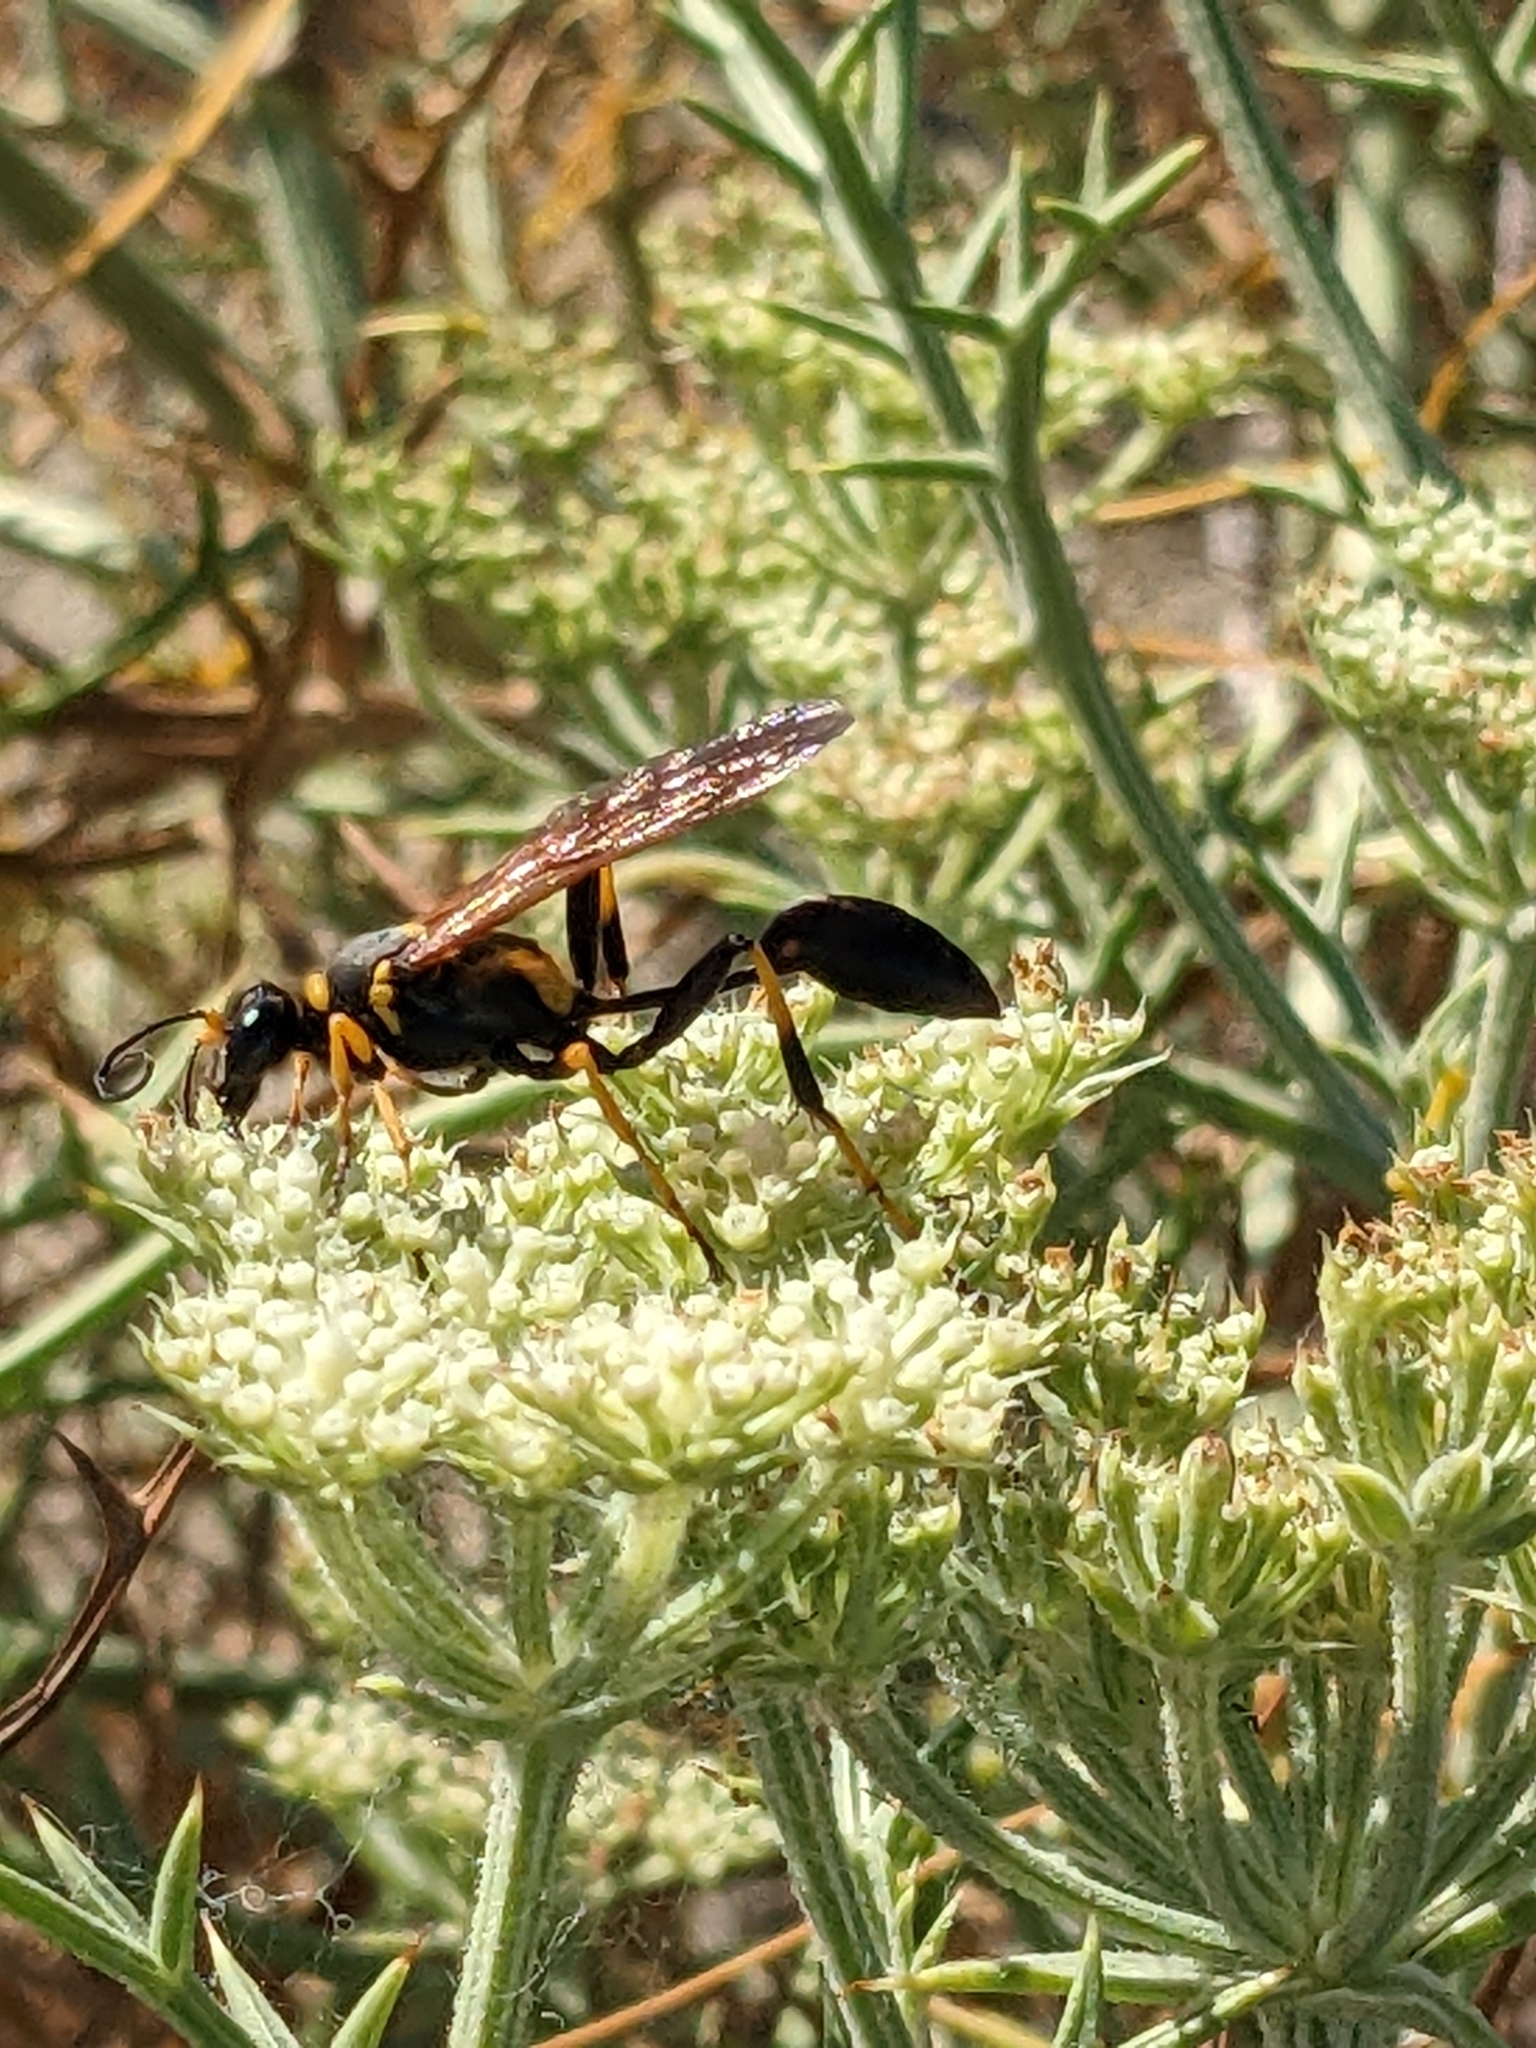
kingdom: Animalia
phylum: Arthropoda
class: Insecta
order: Hymenoptera
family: Sphecidae
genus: Sceliphron
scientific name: Sceliphron caementarium
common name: Mud dauber
